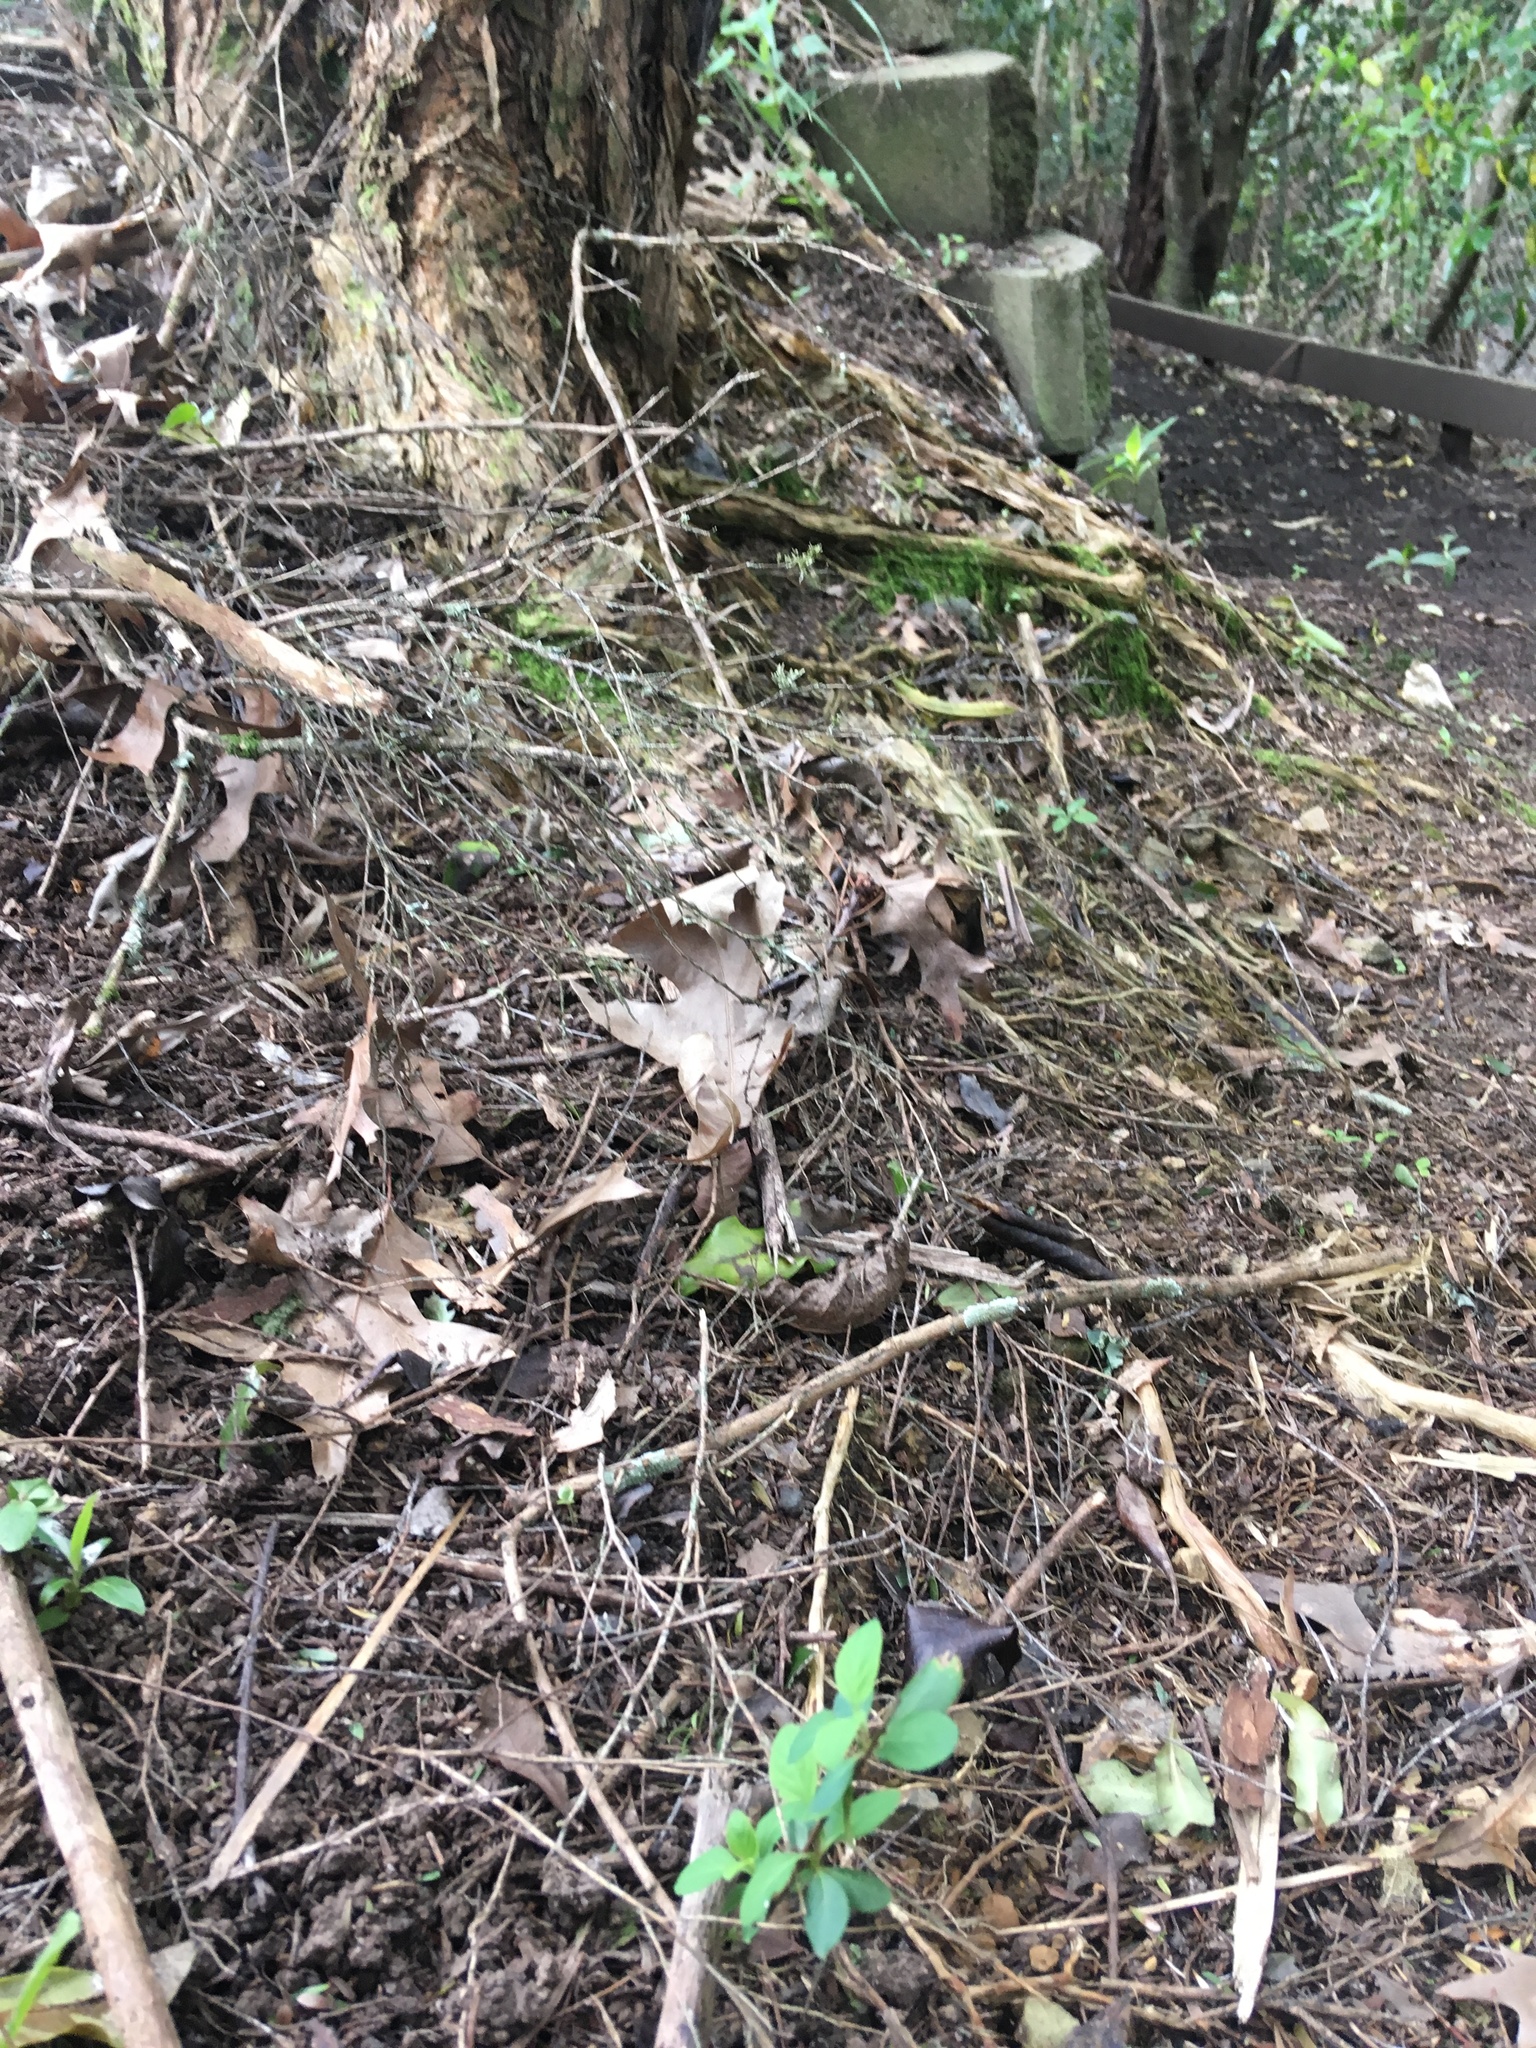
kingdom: Plantae
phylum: Tracheophyta
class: Magnoliopsida
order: Dipsacales
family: Caprifoliaceae
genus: Lonicera
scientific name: Lonicera japonica
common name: Japanese honeysuckle
